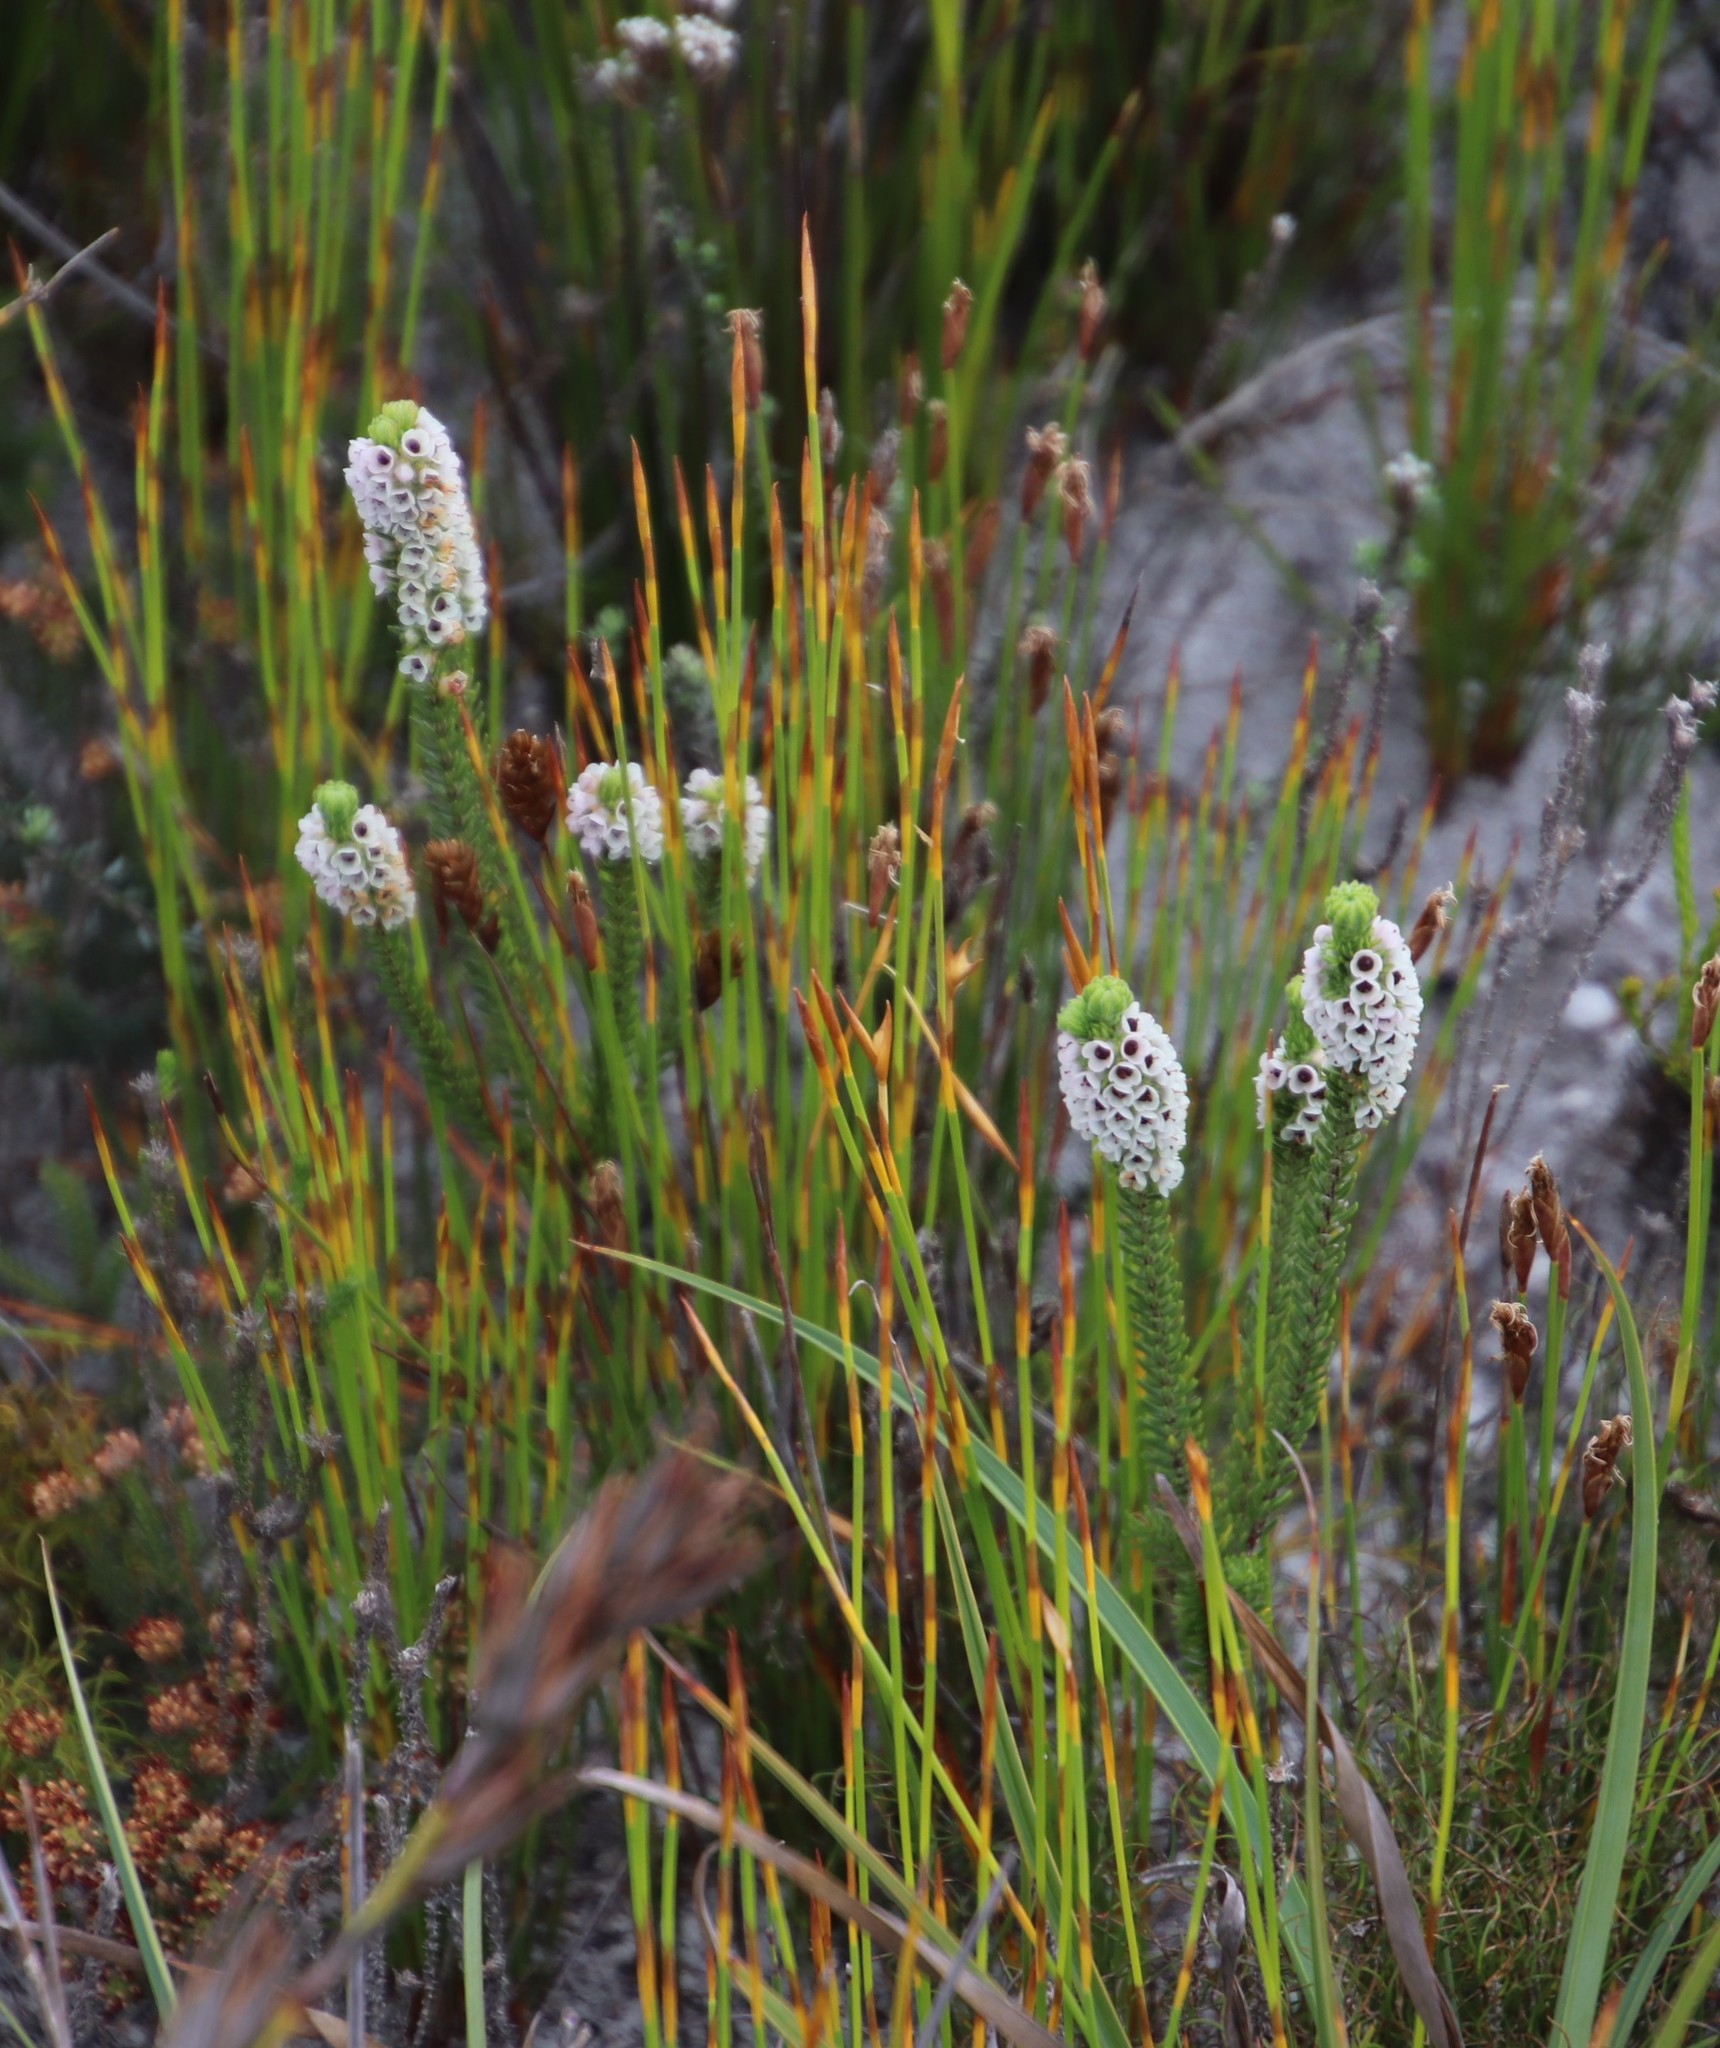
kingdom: Plantae
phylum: Tracheophyta
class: Magnoliopsida
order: Ericales
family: Ericaceae
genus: Erica
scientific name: Erica pyxidiflora
